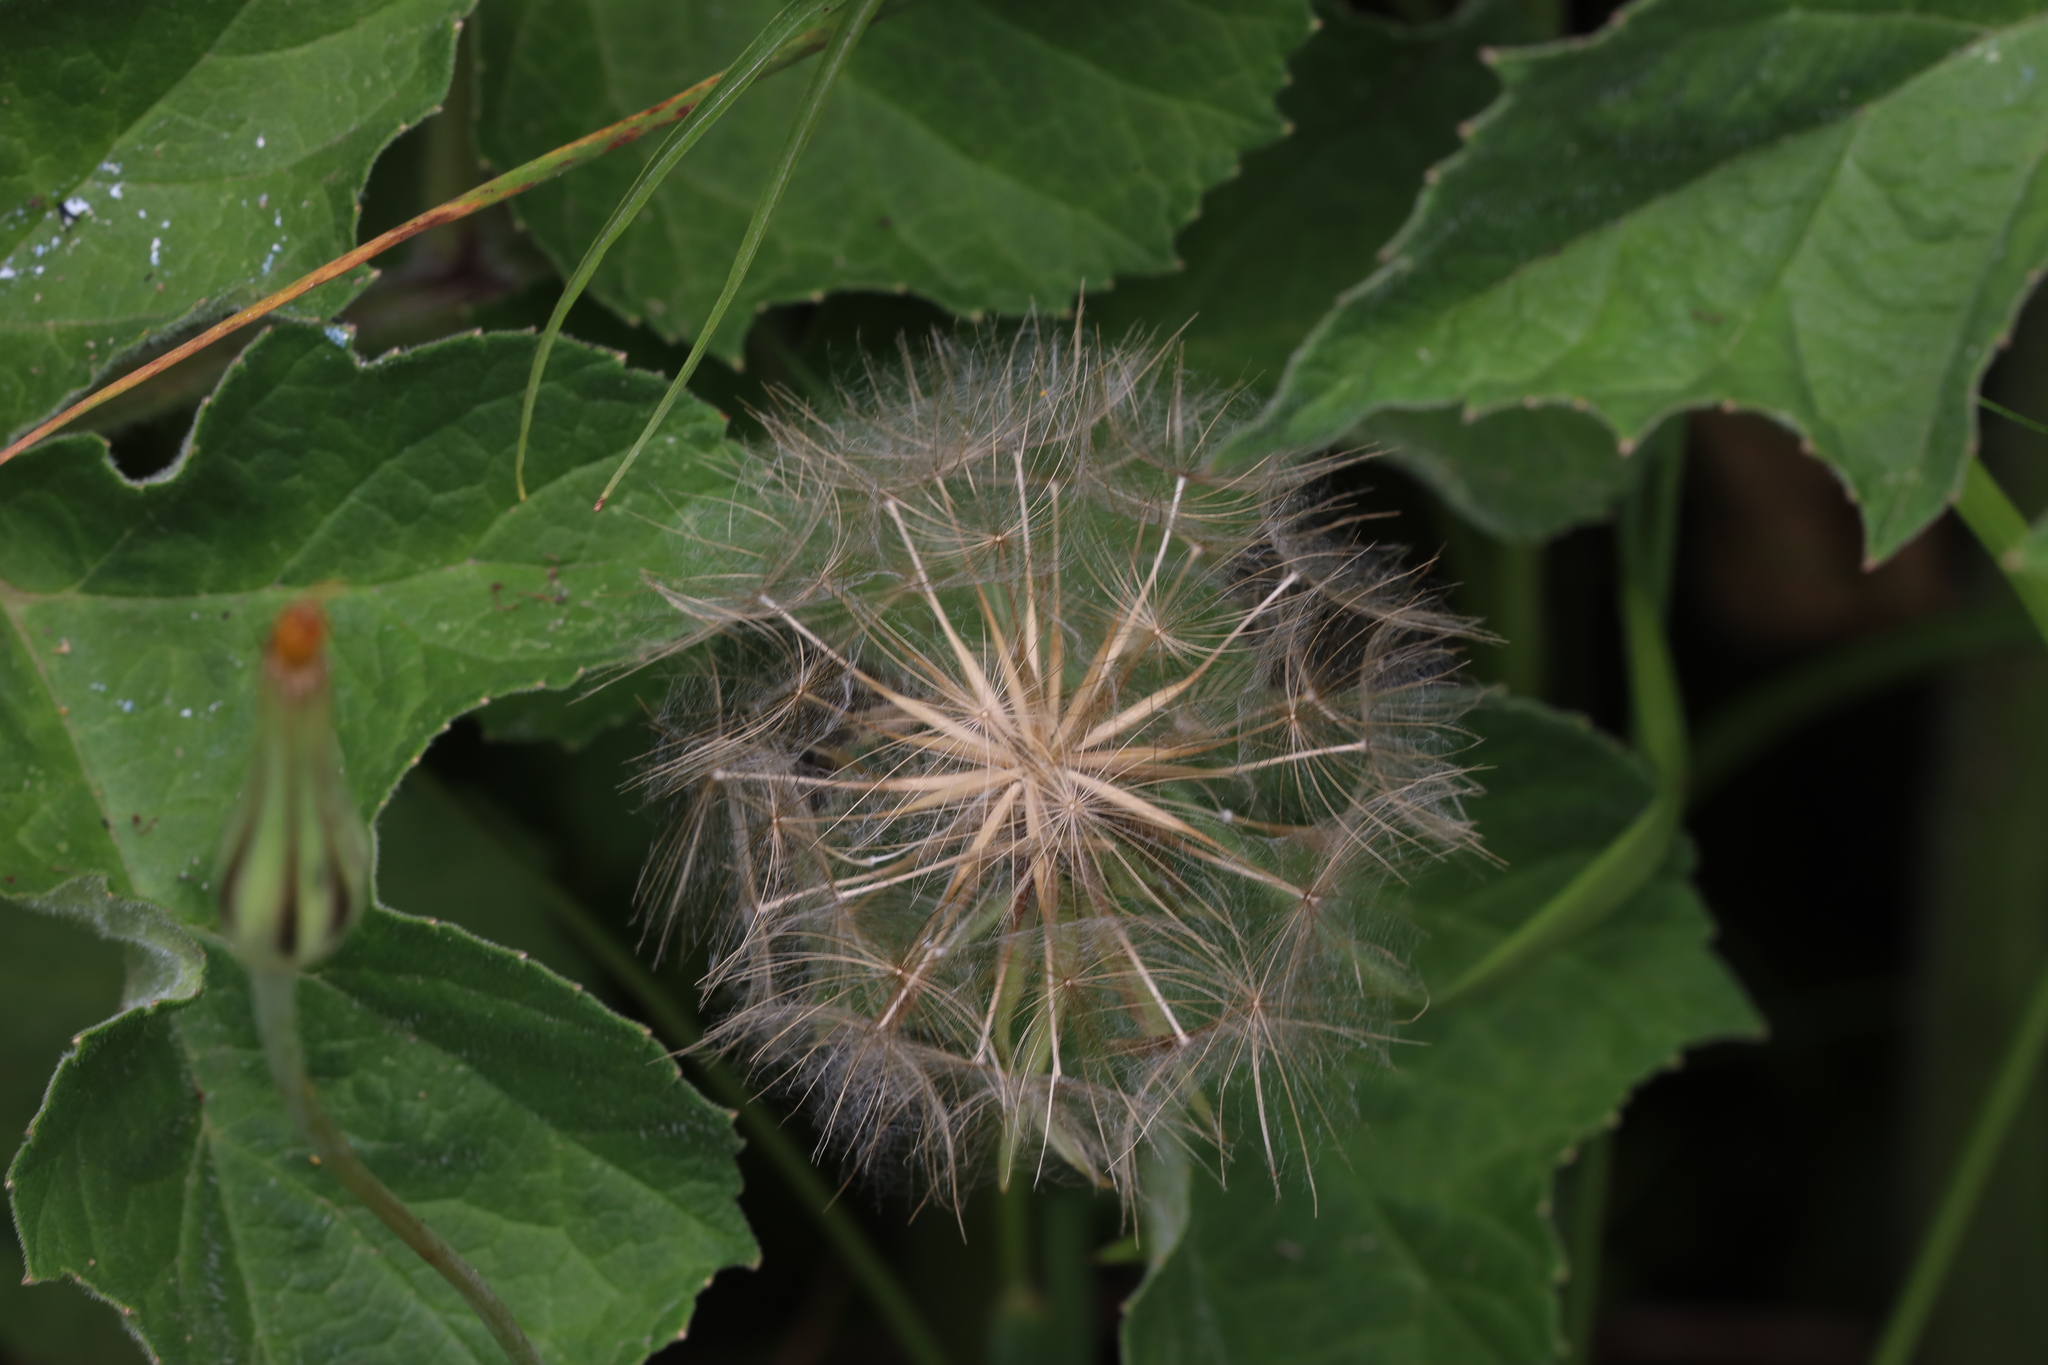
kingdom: Plantae
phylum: Tracheophyta
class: Magnoliopsida
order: Asterales
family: Asteraceae
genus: Tragopogon
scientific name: Tragopogon pratensis
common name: Goat's-beard
